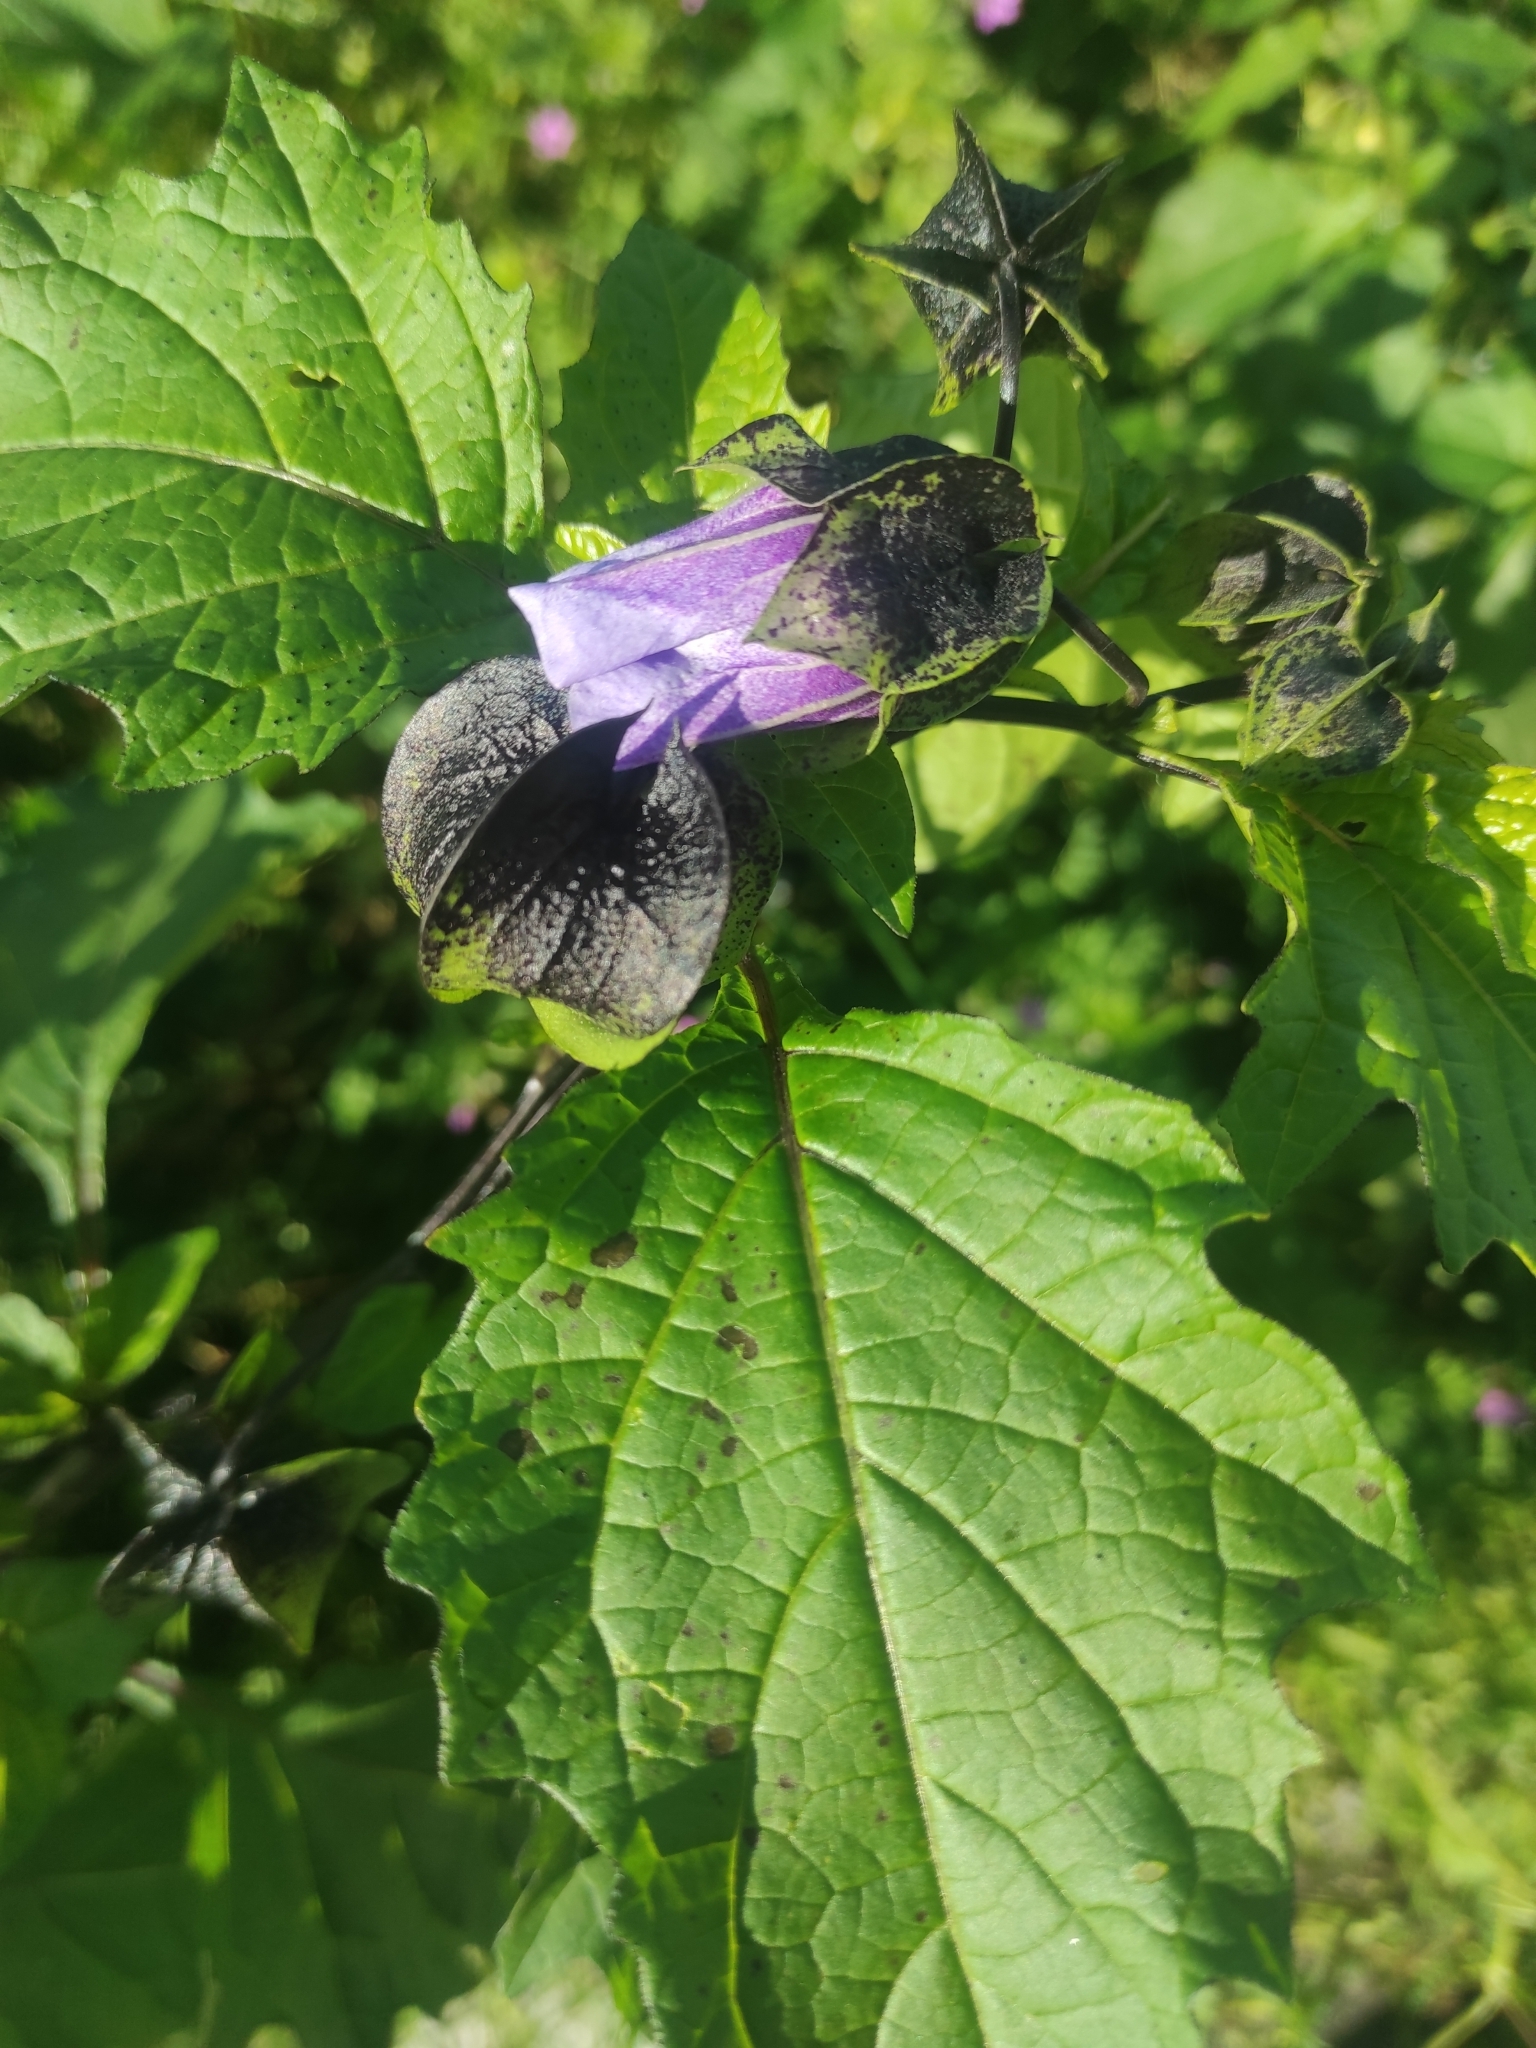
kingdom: Plantae
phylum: Tracheophyta
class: Magnoliopsida
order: Solanales
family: Solanaceae
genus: Nicandra
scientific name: Nicandra physalodes
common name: Apple-of-peru
